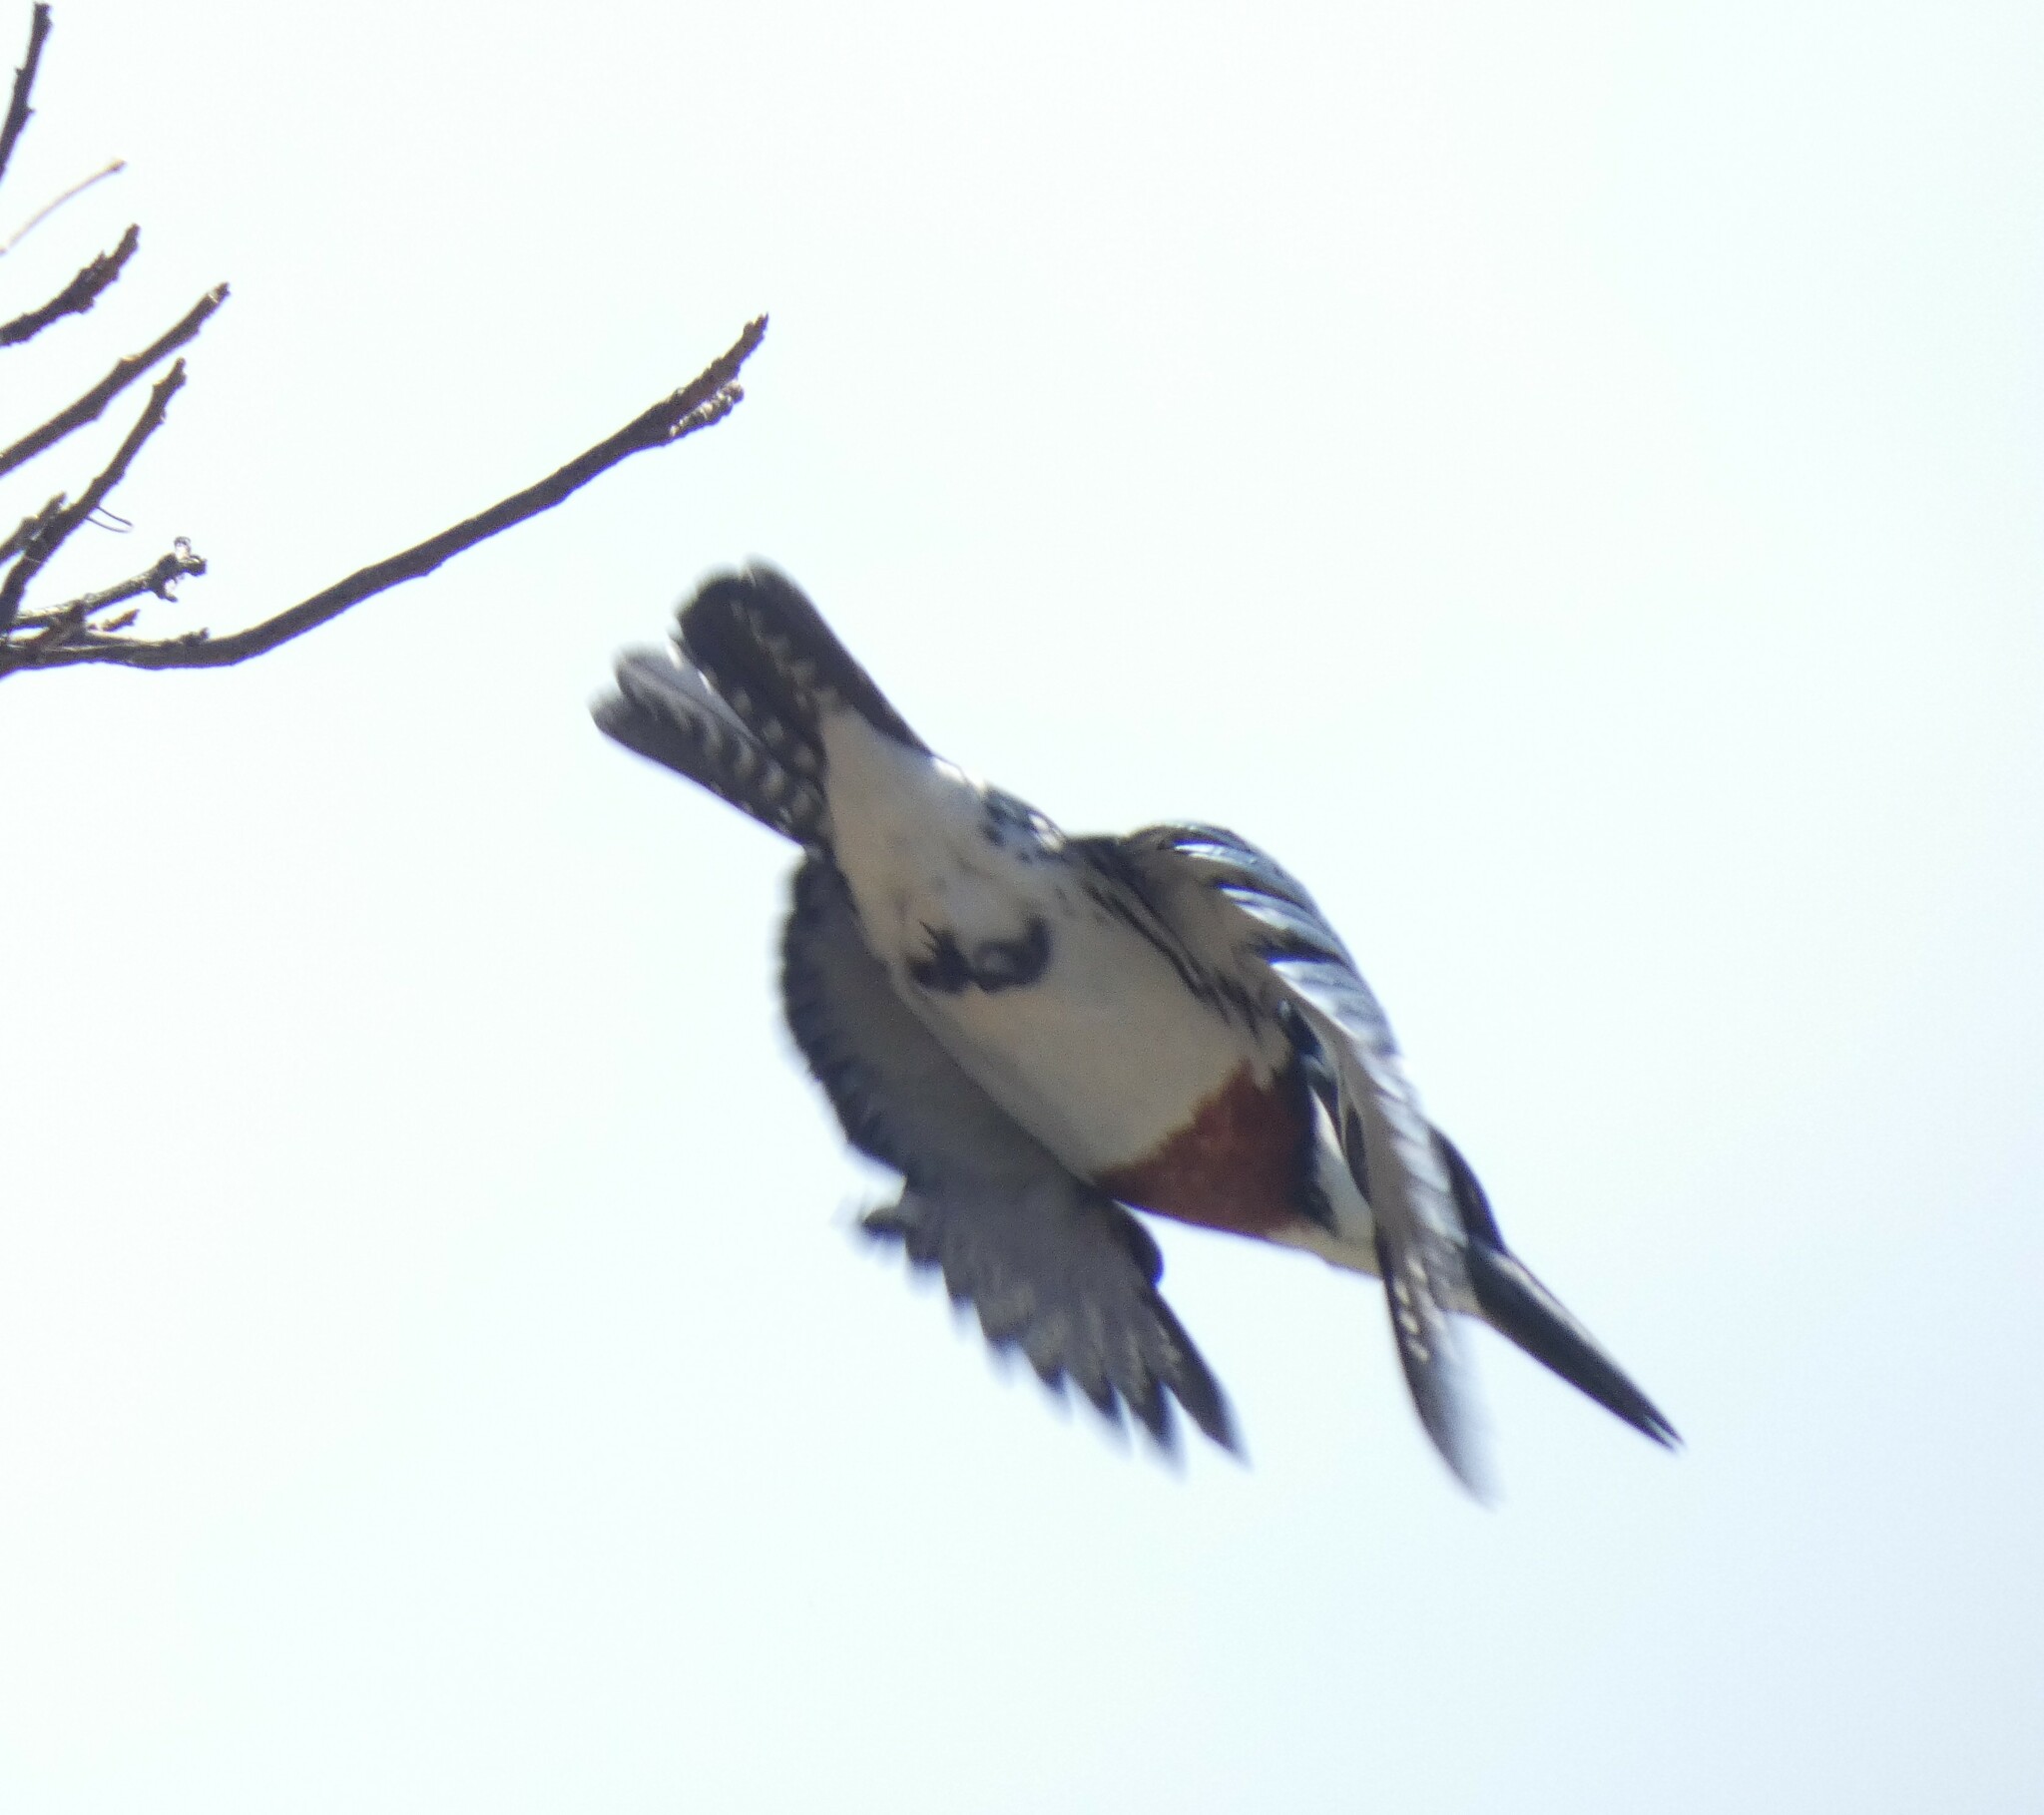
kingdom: Animalia
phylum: Chordata
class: Aves
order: Coraciiformes
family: Alcedinidae
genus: Chloroceryle
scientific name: Chloroceryle amazona
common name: Amazon kingfisher
